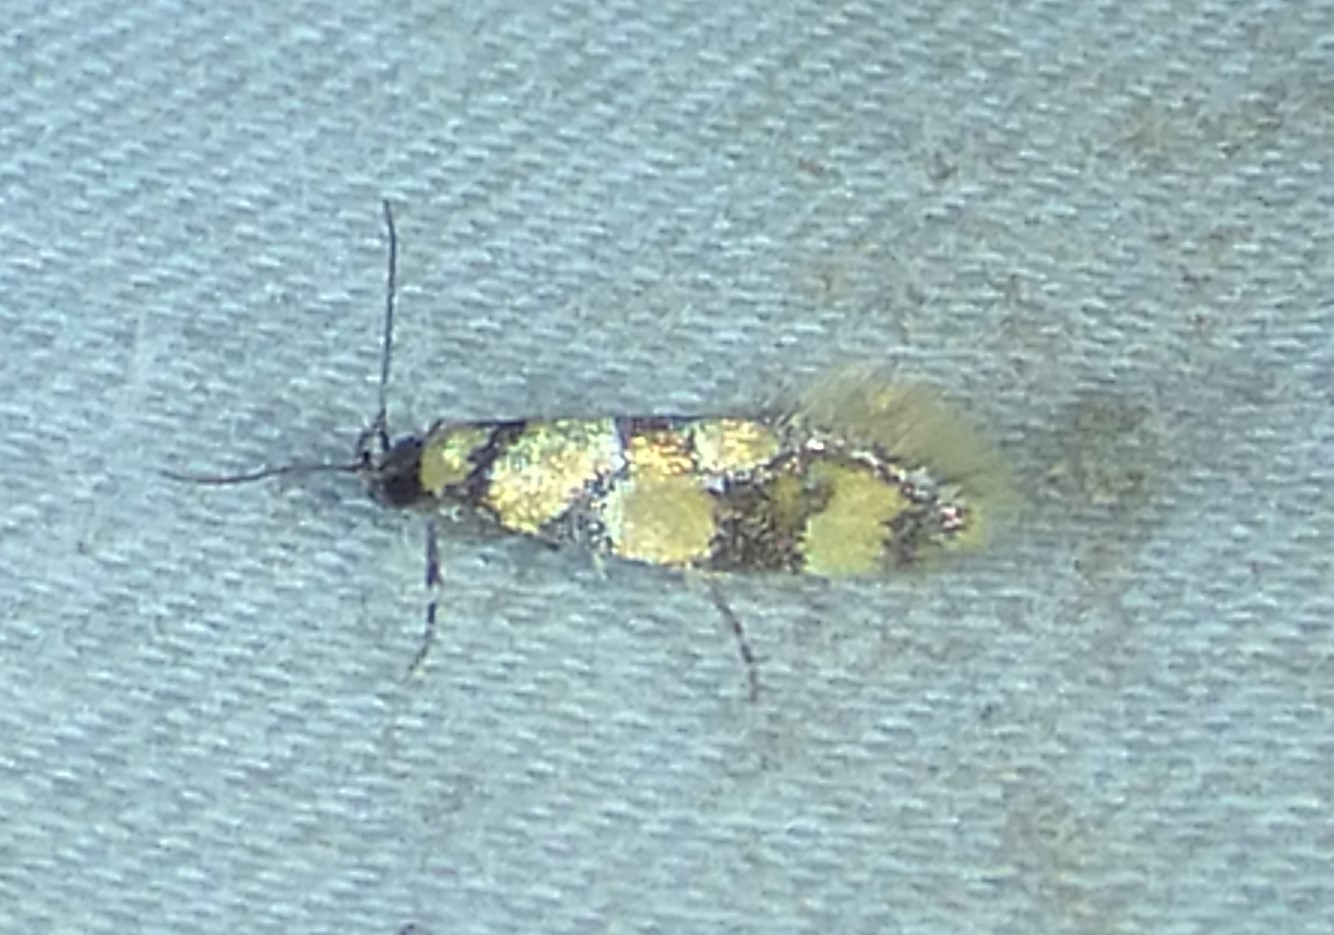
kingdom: Animalia
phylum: Arthropoda
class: Insecta
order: Lepidoptera
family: Oecophoridae
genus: Decantha
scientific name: Decantha borkhausenii
